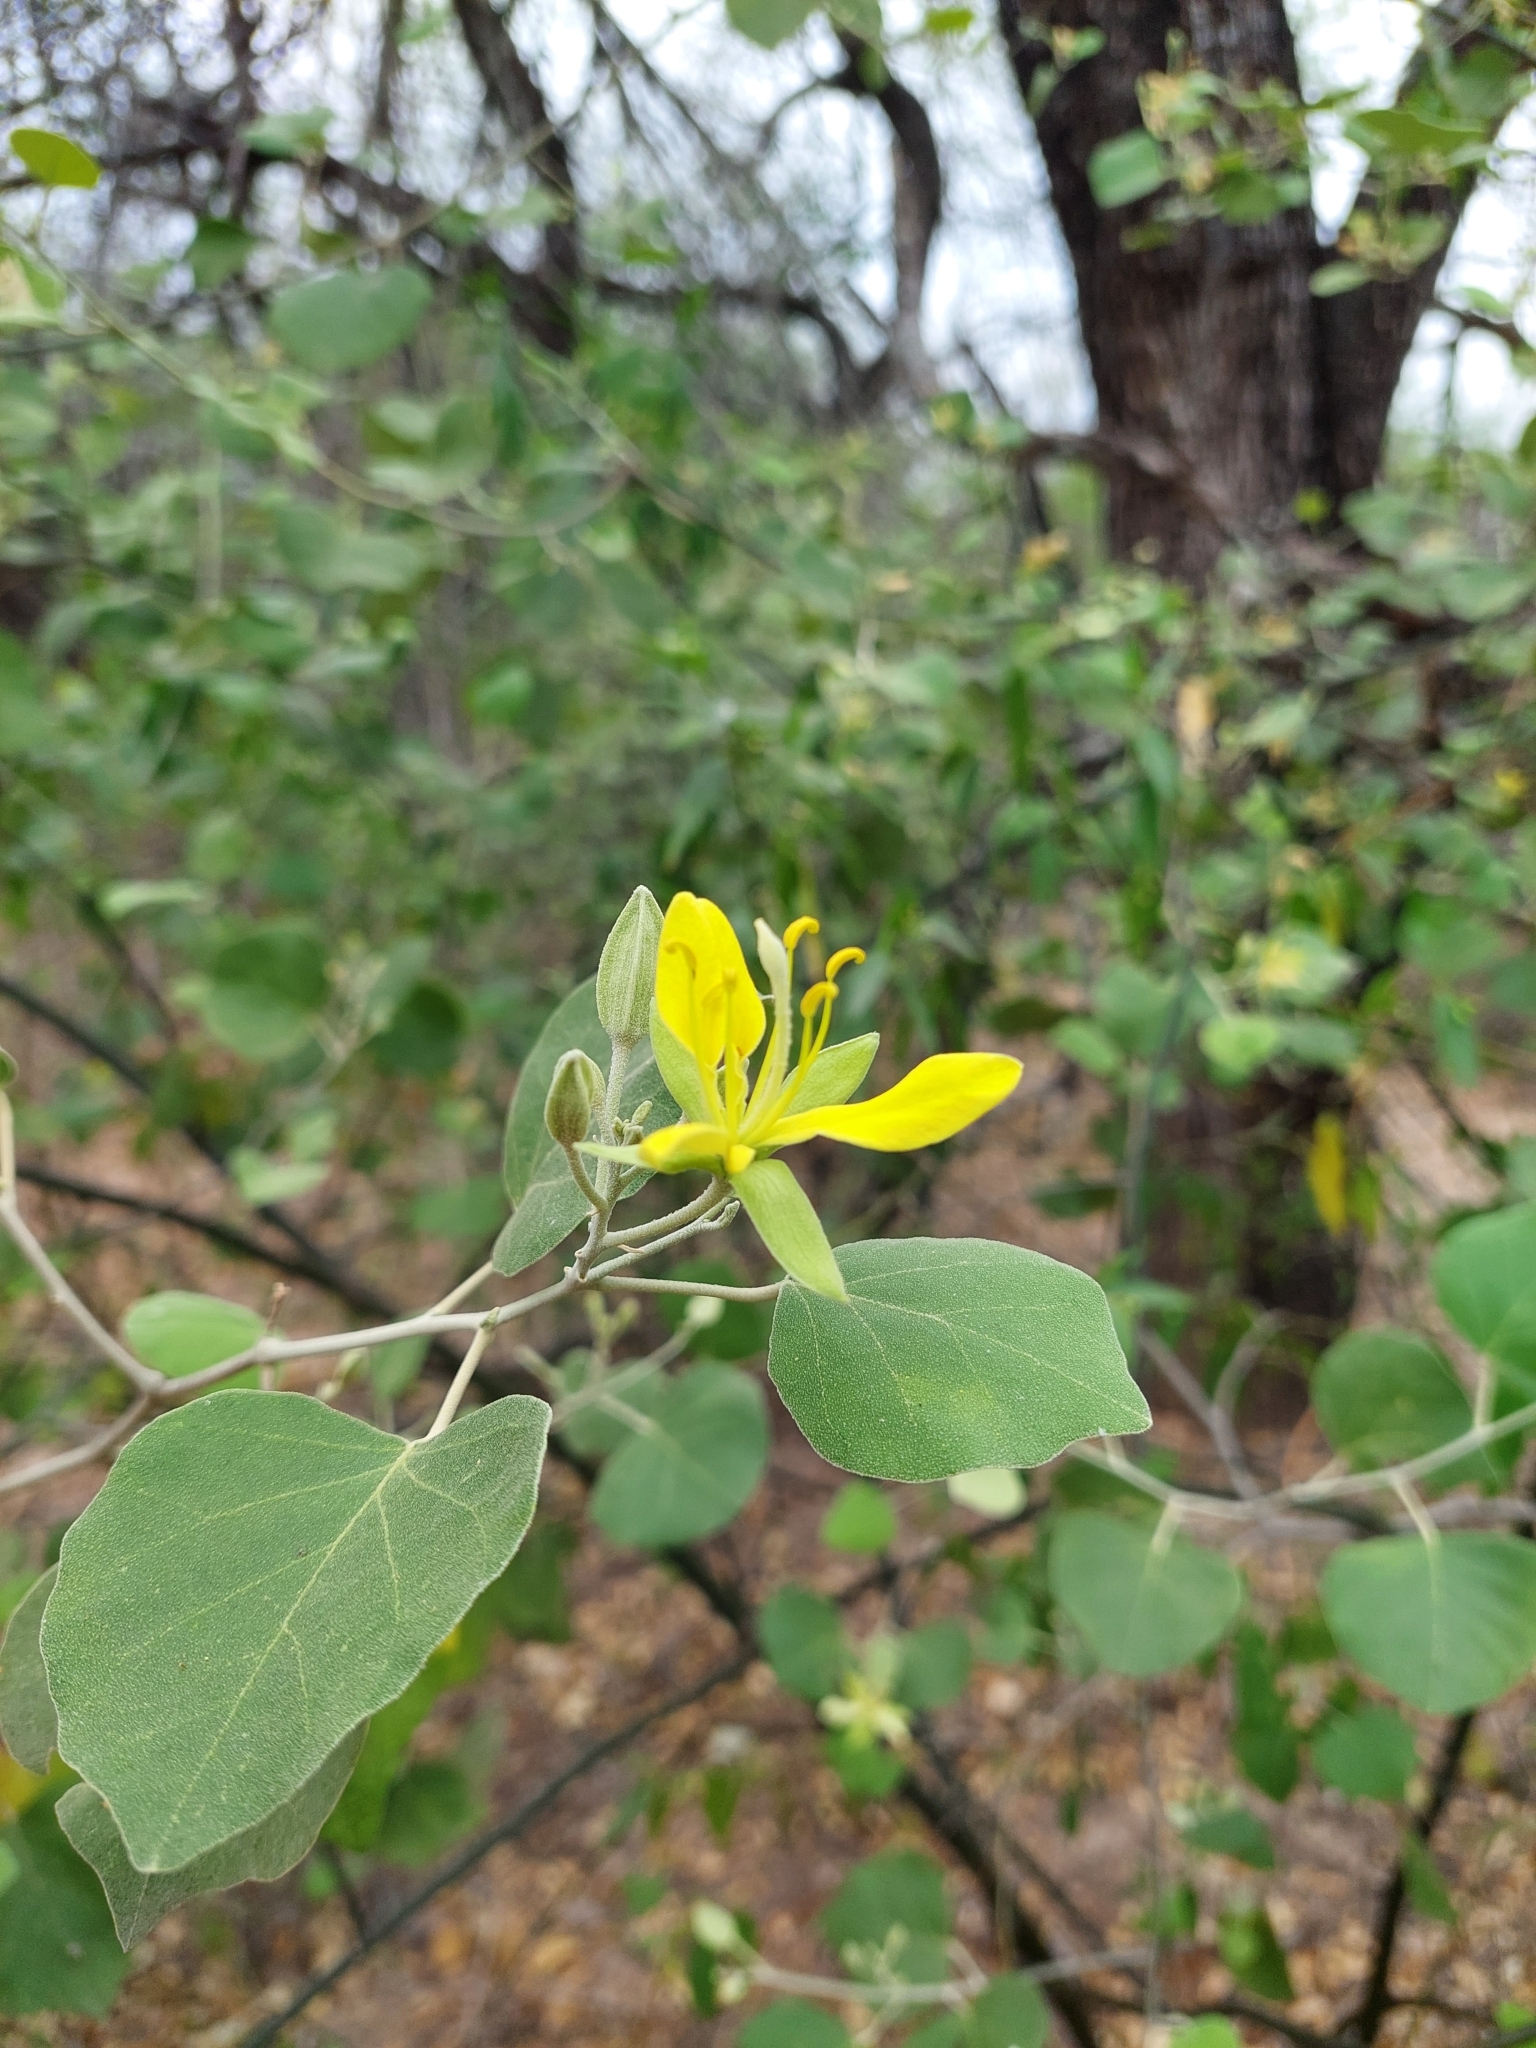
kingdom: Plantae
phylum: Tracheophyta
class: Magnoliopsida
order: Brassicales
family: Capparaceae
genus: Capparicordis
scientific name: Capparicordis tweedieana
